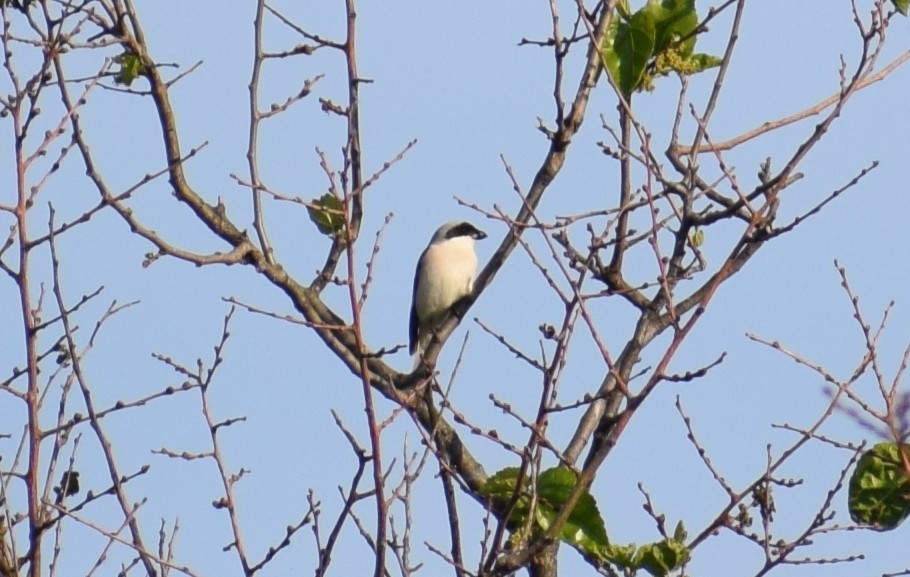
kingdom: Animalia
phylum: Chordata
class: Aves
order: Passeriformes
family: Laniidae
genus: Lanius
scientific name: Lanius minor
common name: Lesser grey shrike
